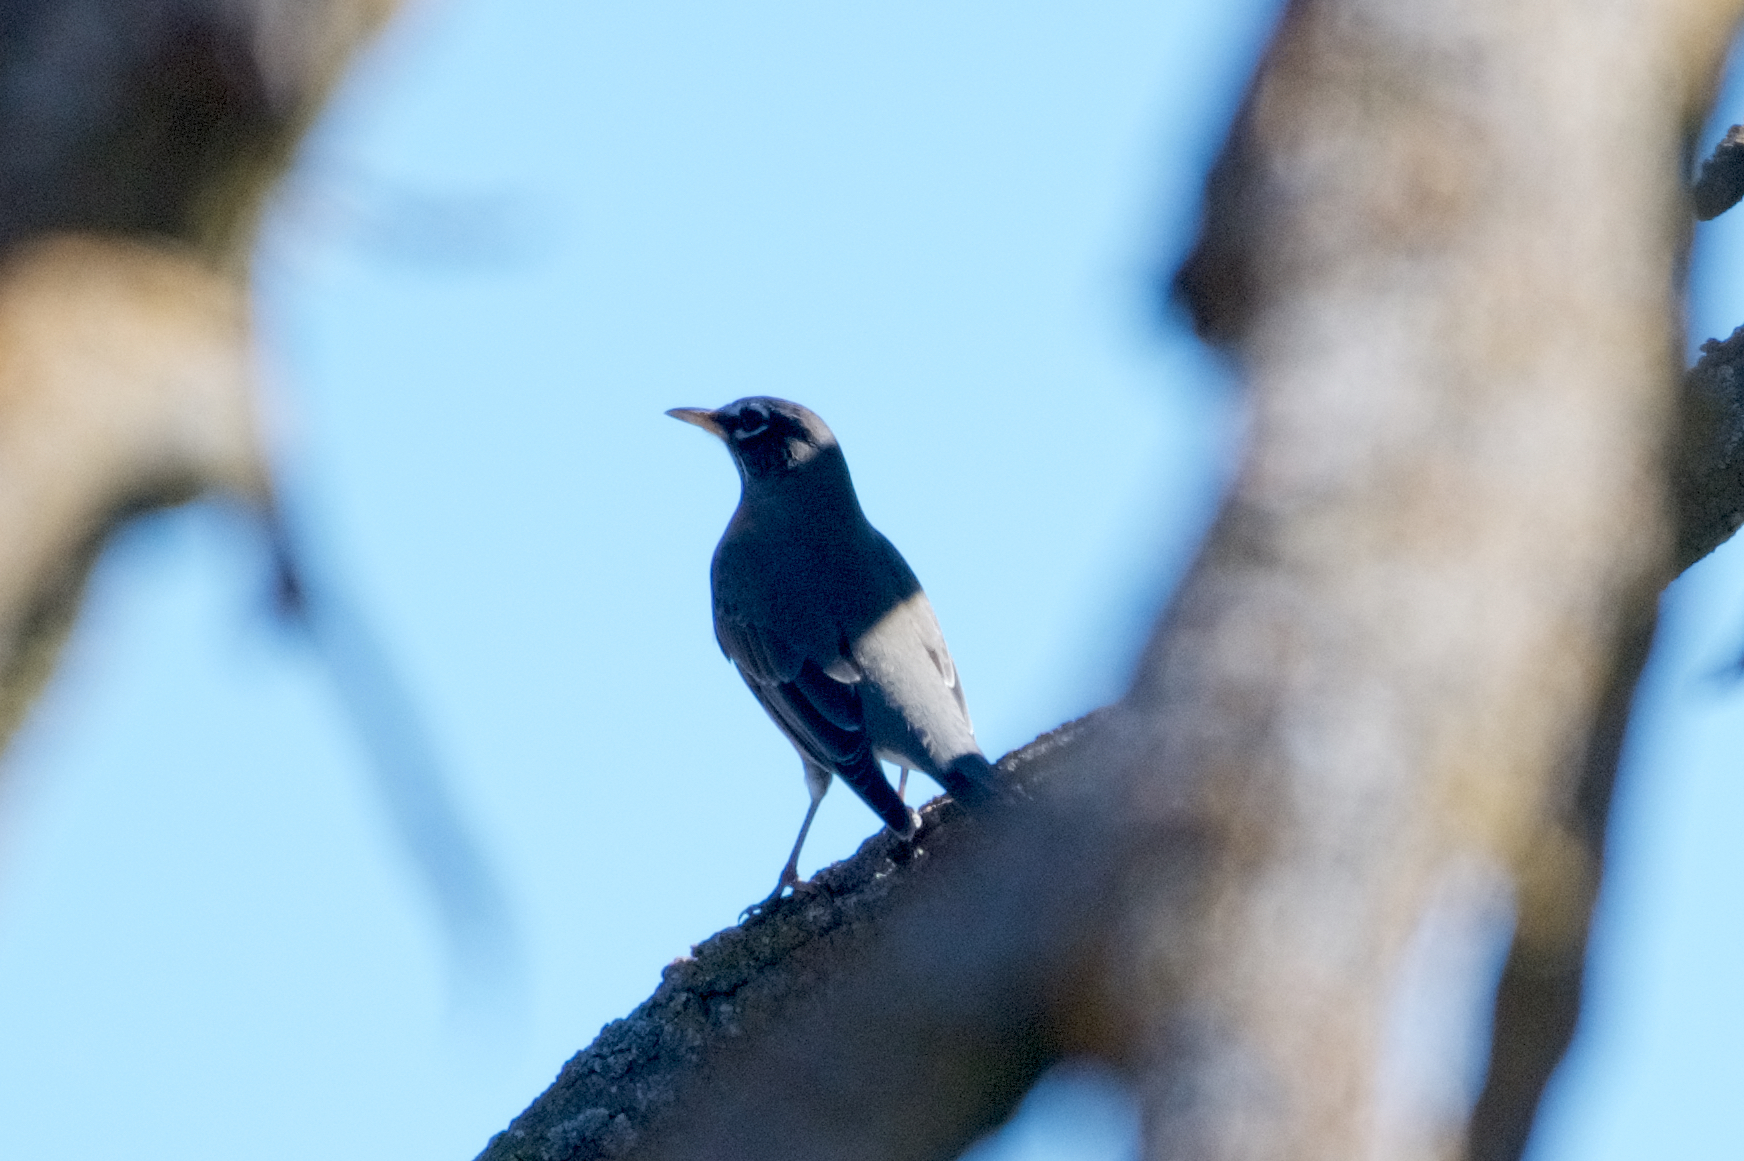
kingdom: Animalia
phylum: Chordata
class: Aves
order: Passeriformes
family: Turdidae
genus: Turdus
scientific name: Turdus migratorius
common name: American robin
